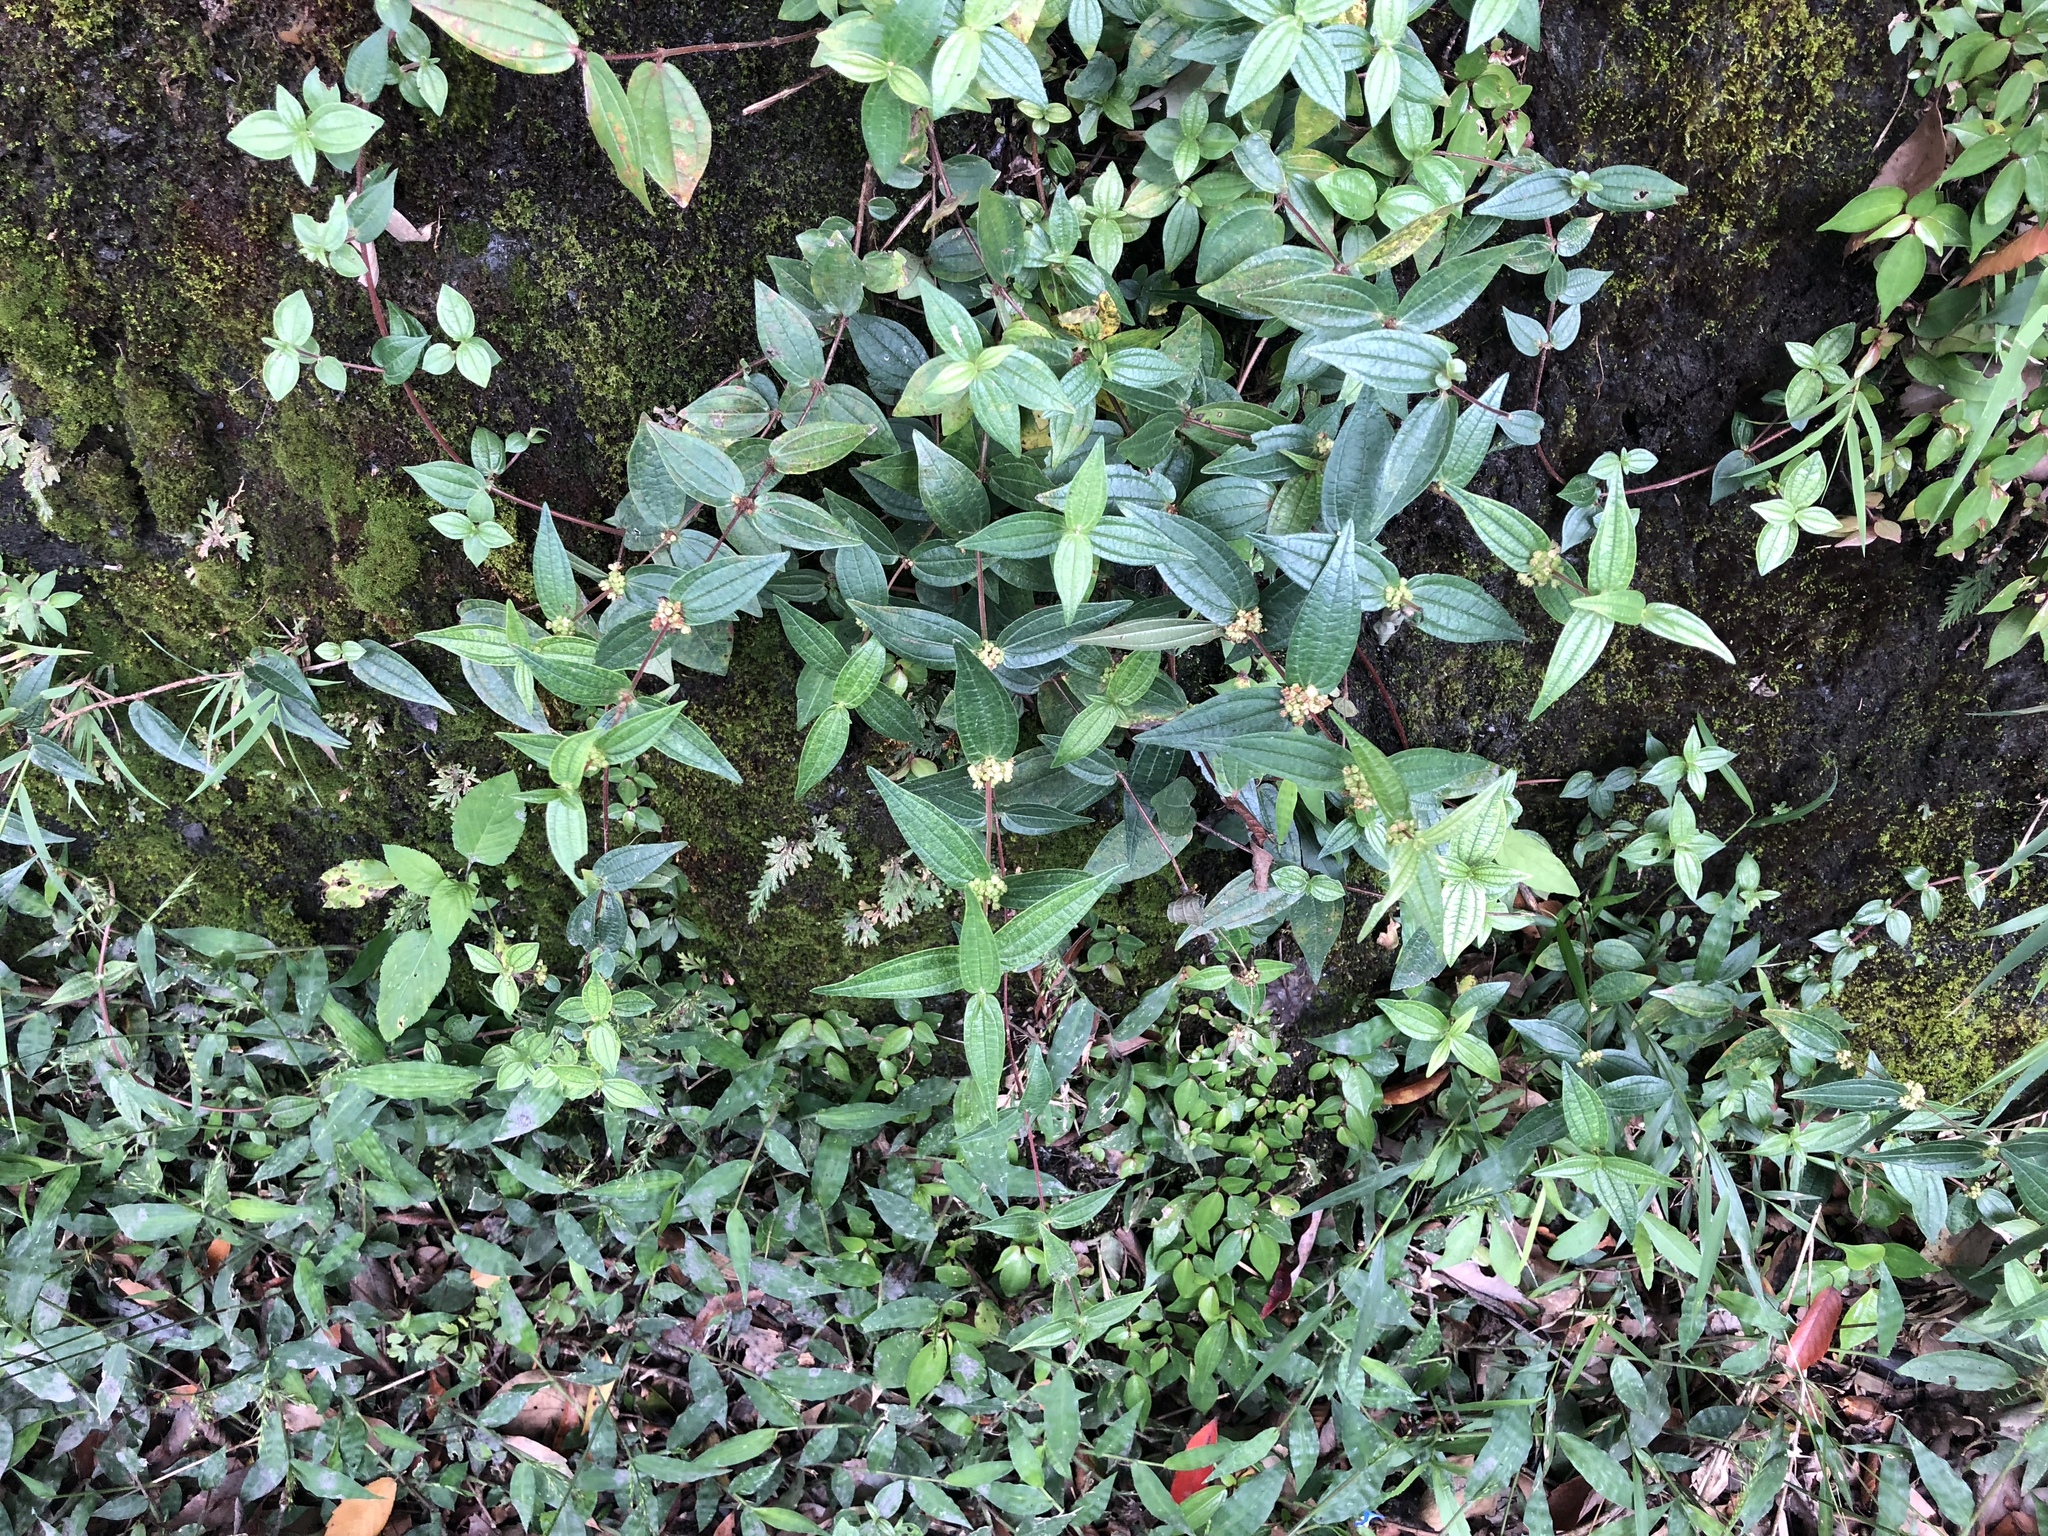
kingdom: Plantae
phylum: Tracheophyta
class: Magnoliopsida
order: Rosales
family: Urticaceae
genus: Gonostegia
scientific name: Gonostegia triandra
